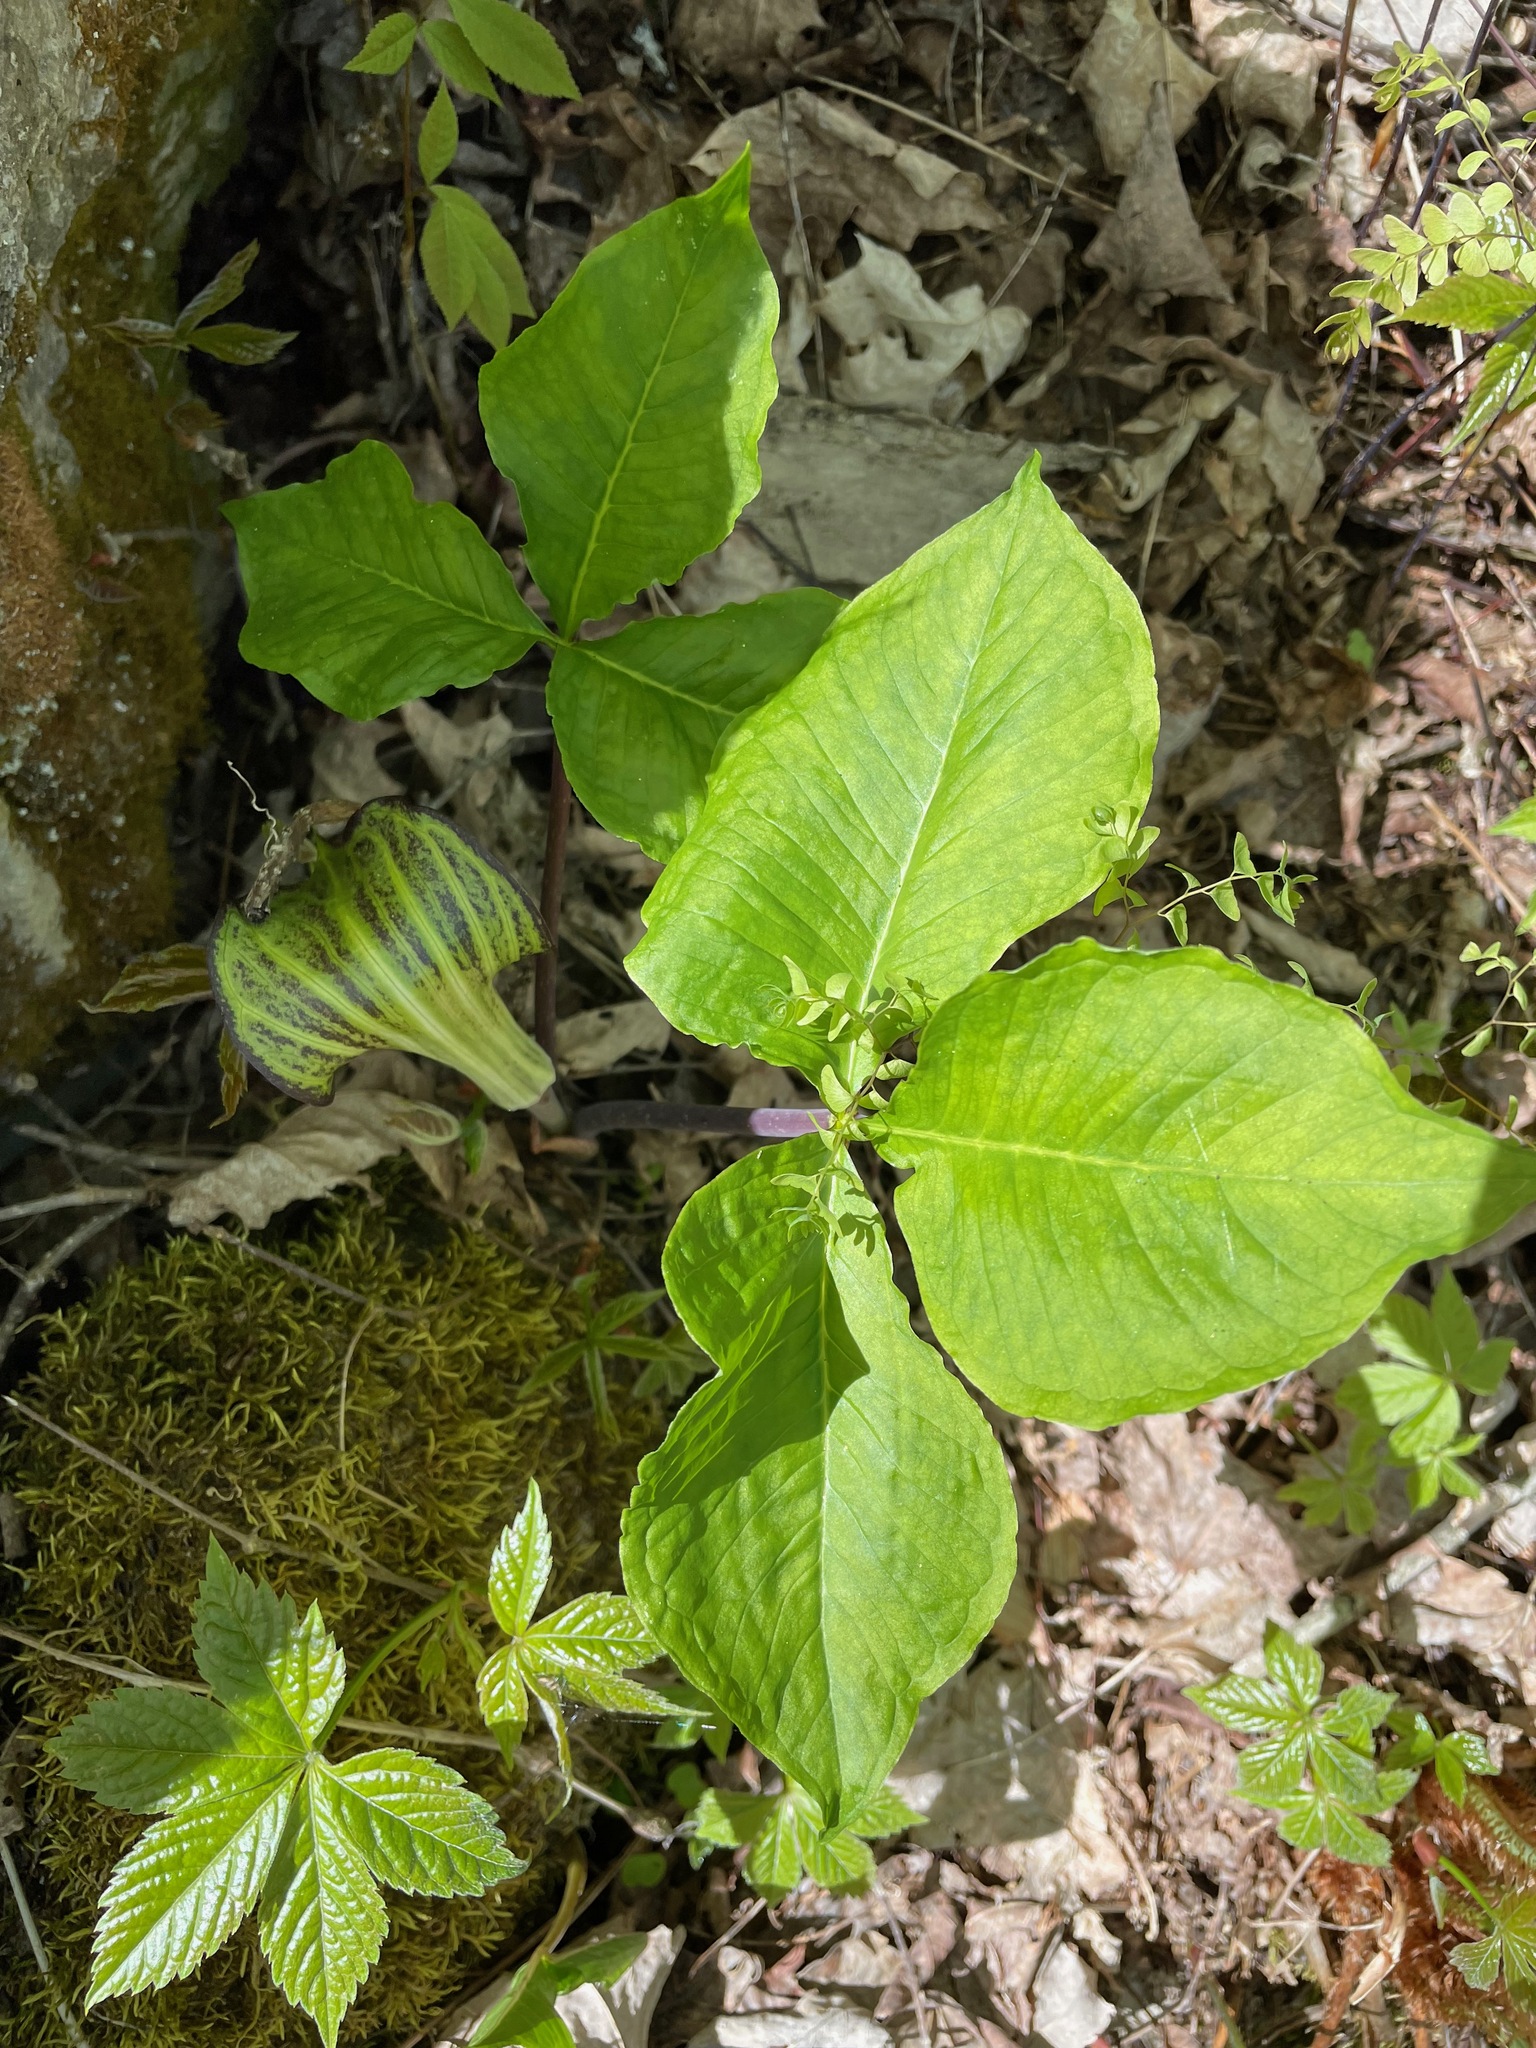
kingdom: Plantae
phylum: Tracheophyta
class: Liliopsida
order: Alismatales
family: Araceae
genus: Arisaema
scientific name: Arisaema triphyllum
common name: Jack-in-the-pulpit
